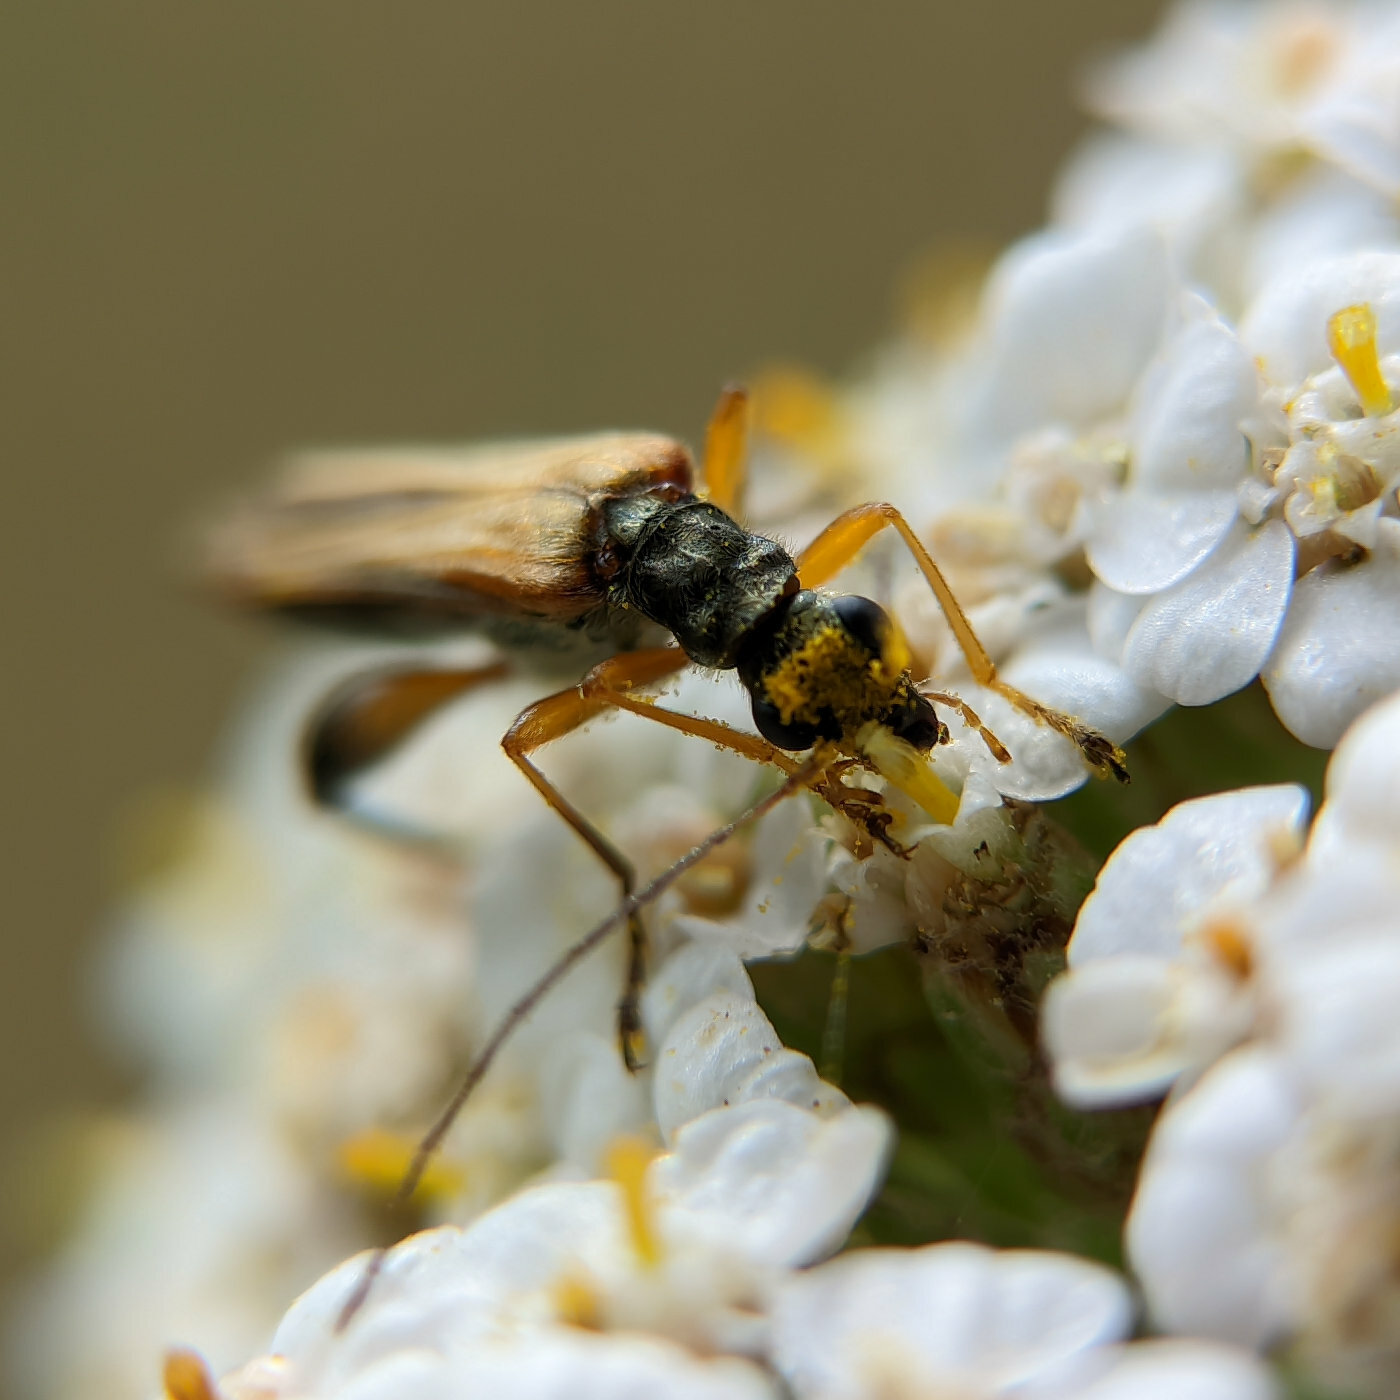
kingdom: Animalia
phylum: Arthropoda
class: Insecta
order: Coleoptera
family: Oedemeridae
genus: Oedemera
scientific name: Oedemera podagrariae
